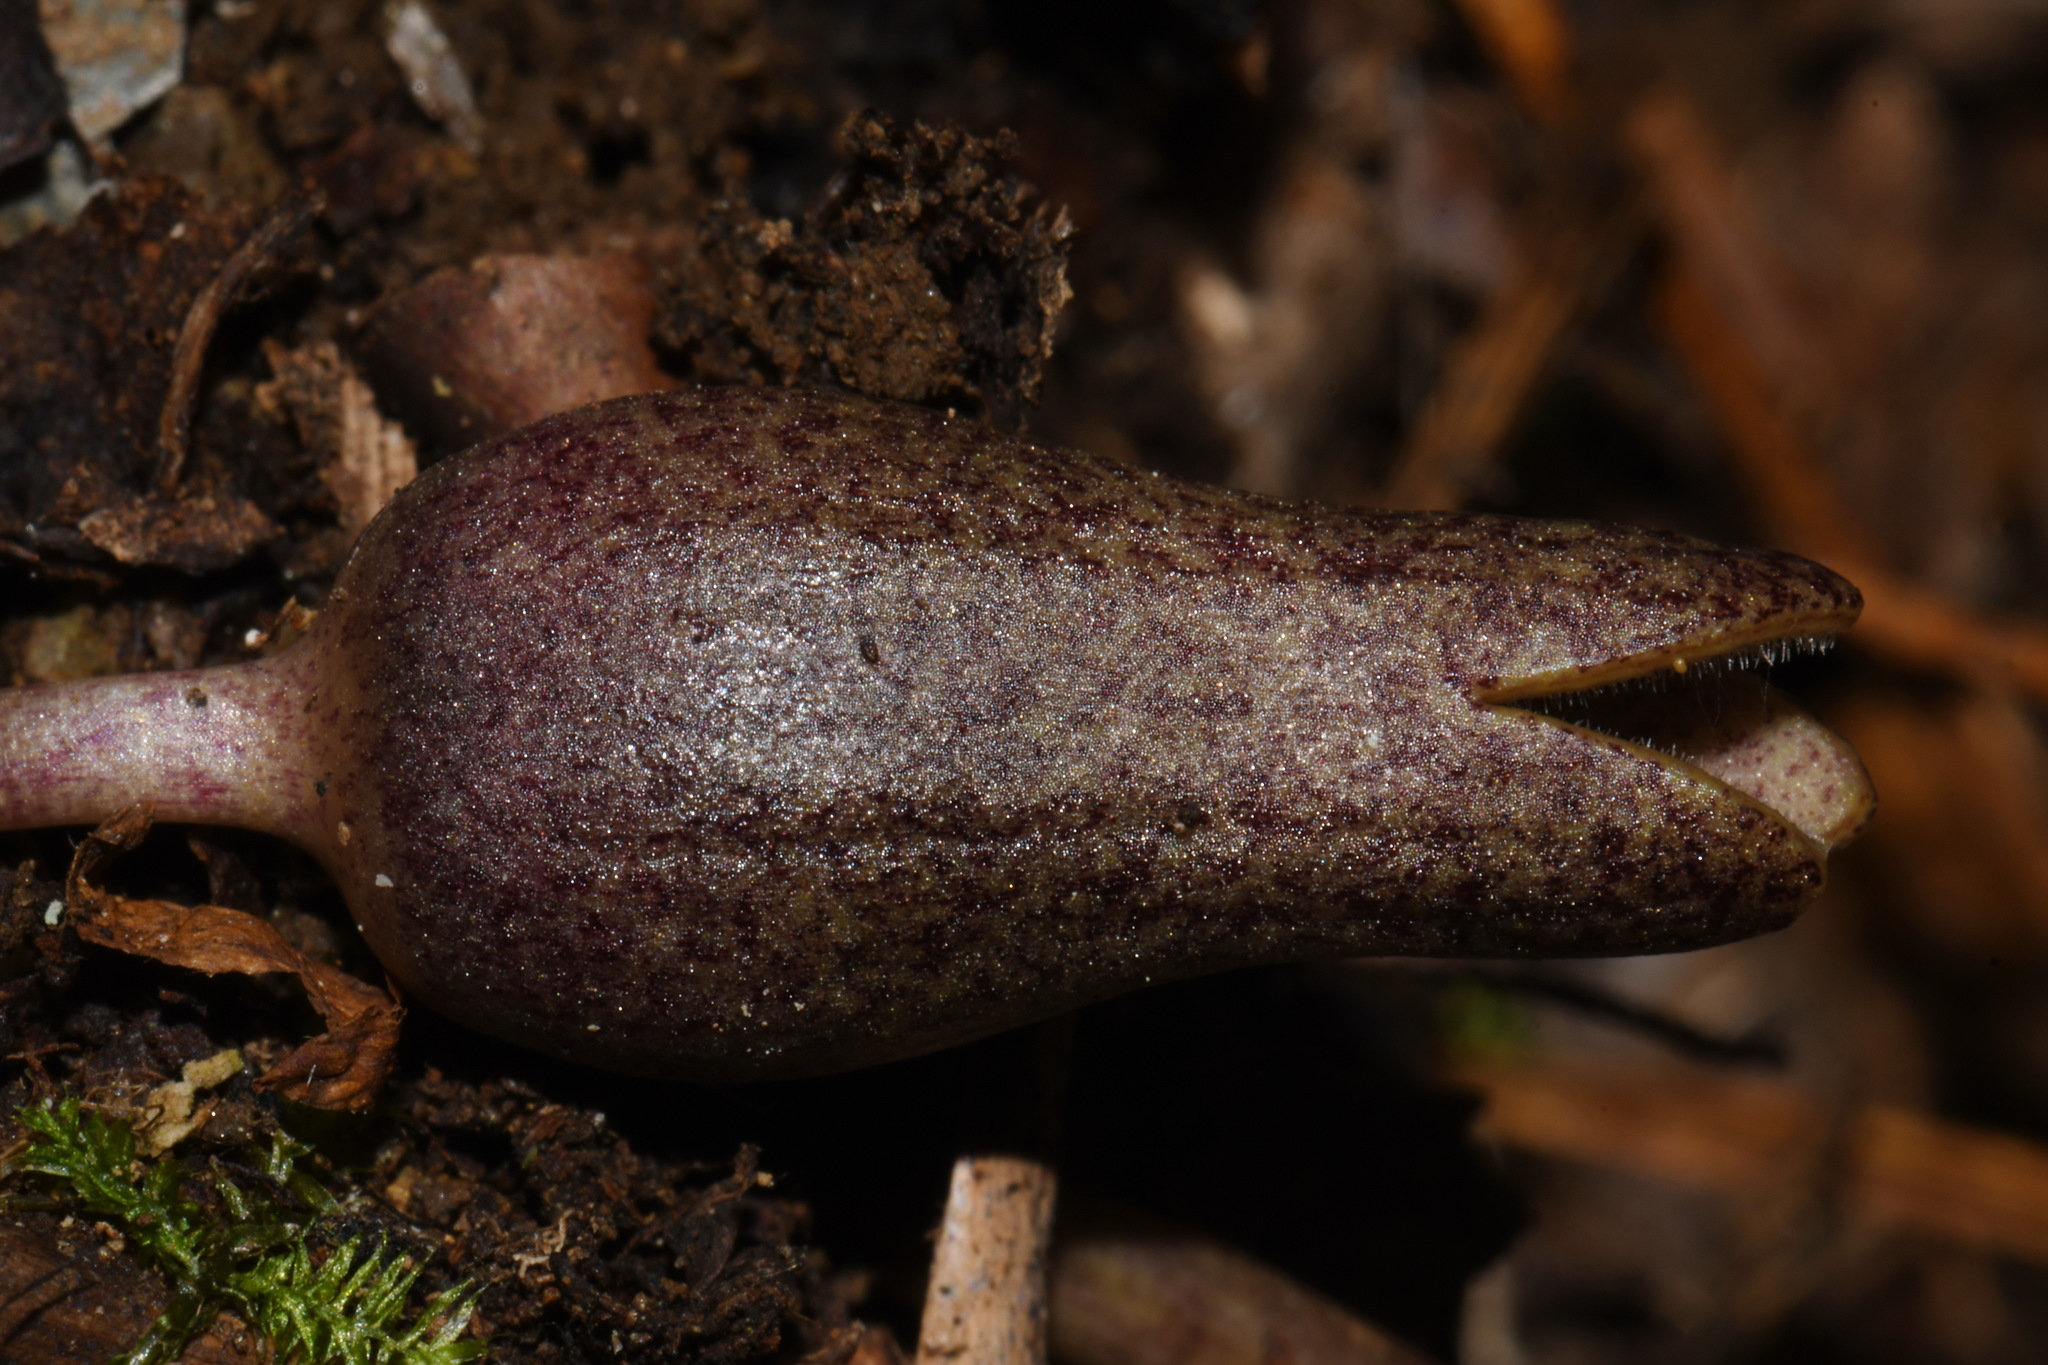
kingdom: Plantae
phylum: Tracheophyta
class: Magnoliopsida
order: Piperales
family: Aristolochiaceae
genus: Hexastylis
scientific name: Hexastylis arifolia
